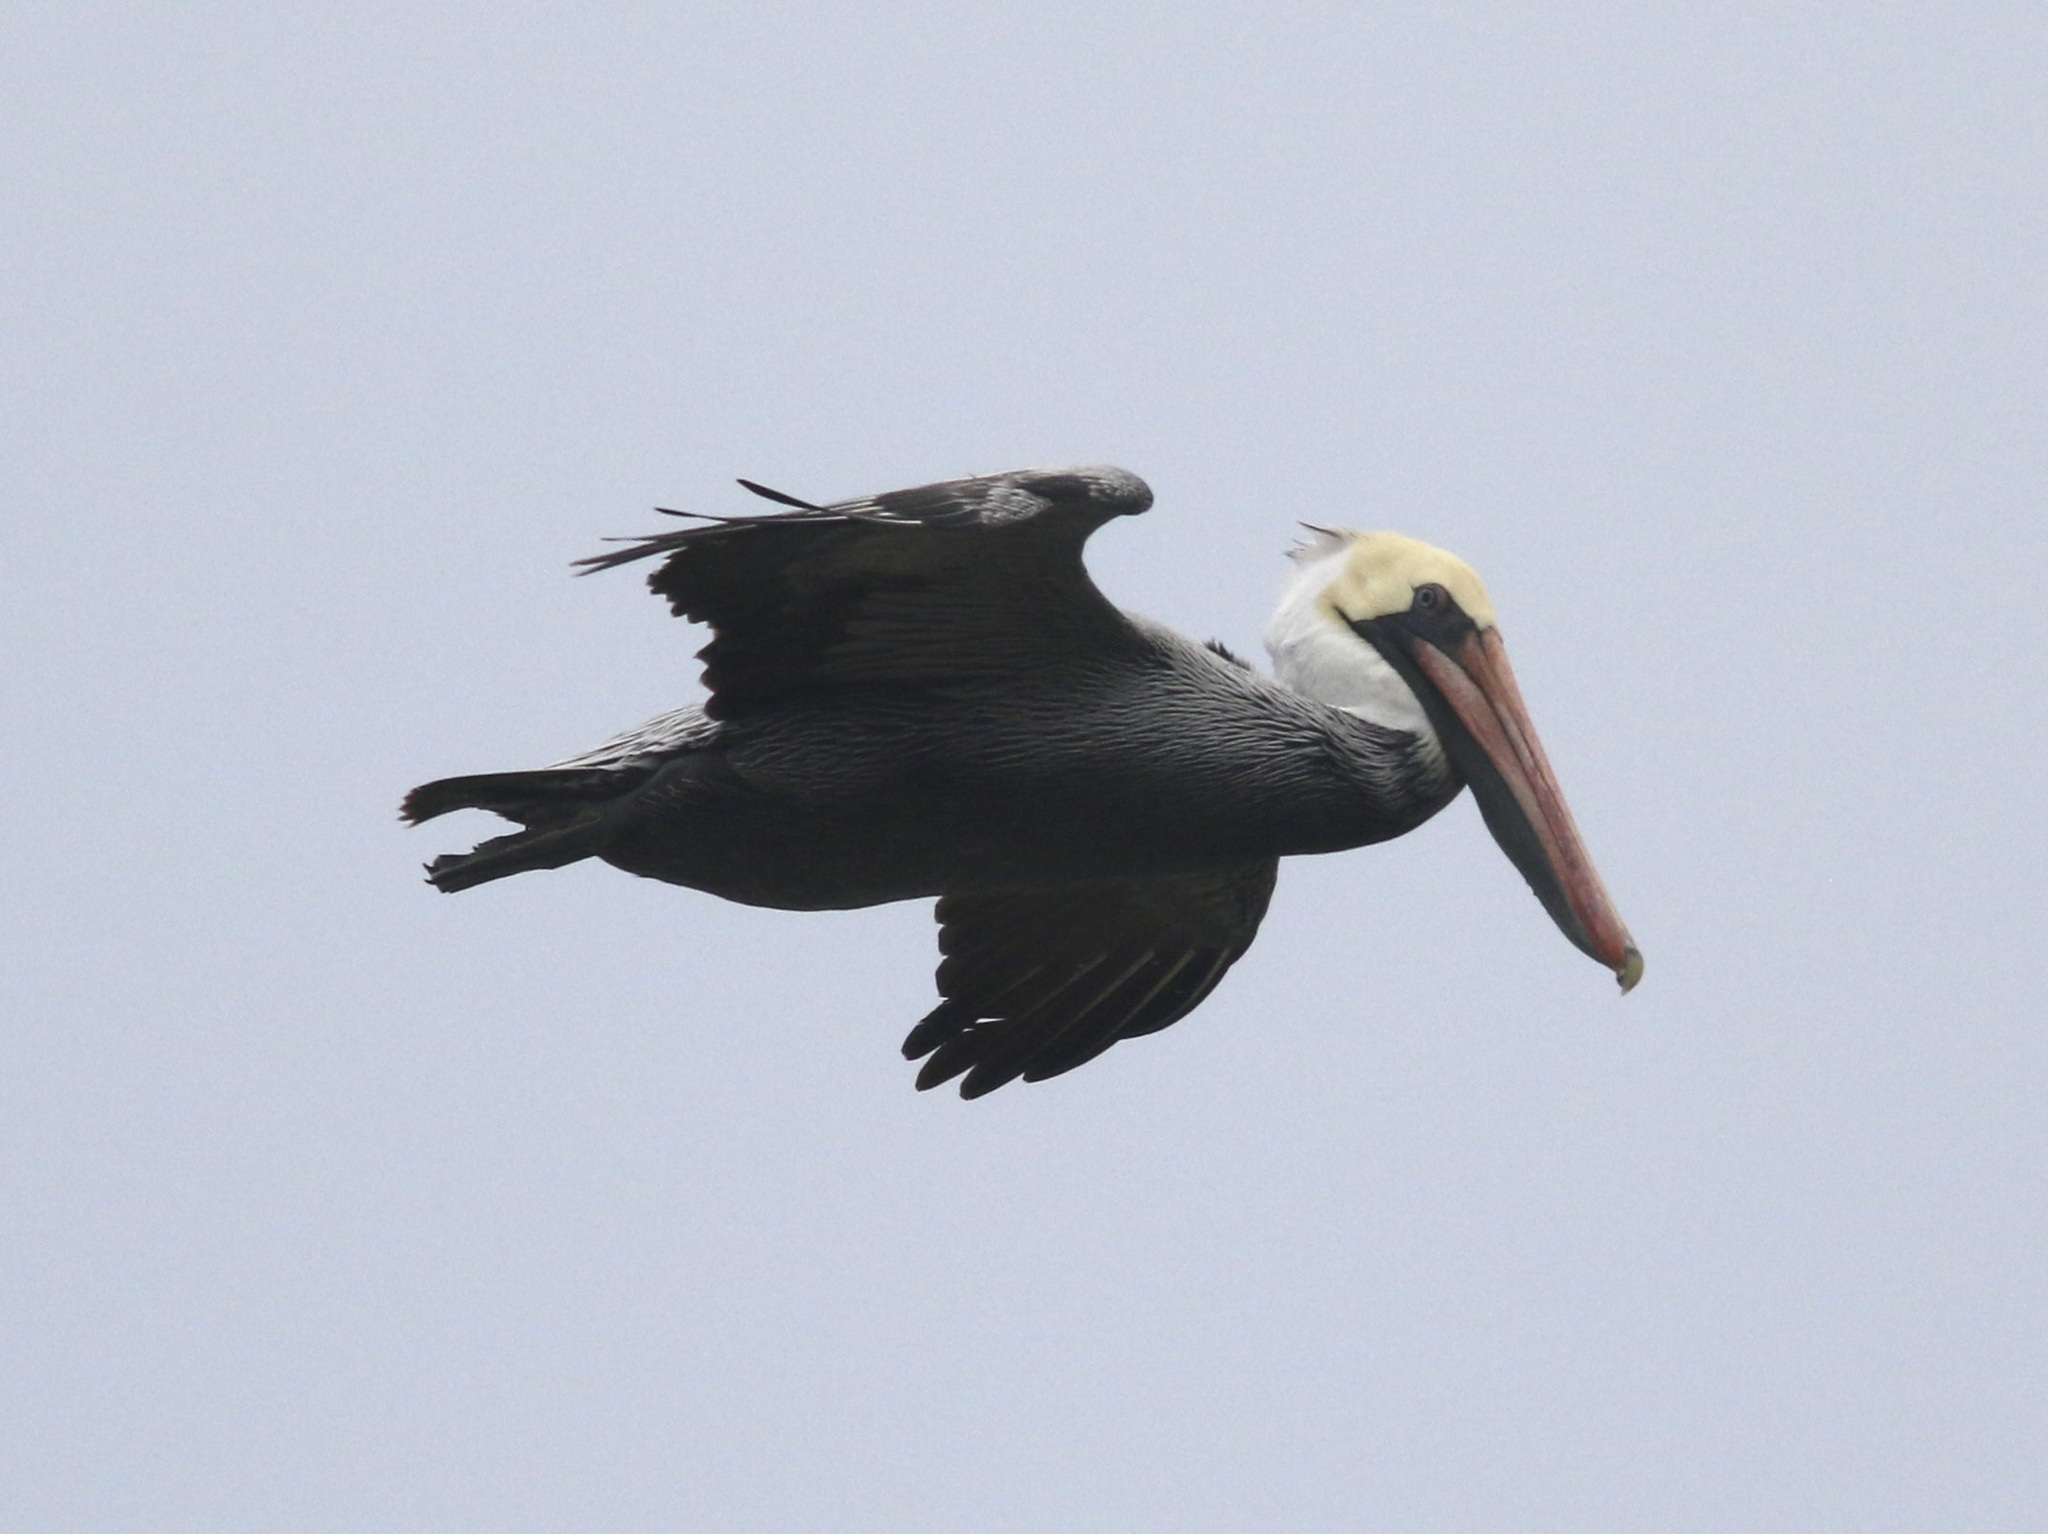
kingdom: Animalia
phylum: Chordata
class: Aves
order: Pelecaniformes
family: Pelecanidae
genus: Pelecanus
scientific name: Pelecanus occidentalis
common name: Brown pelican
